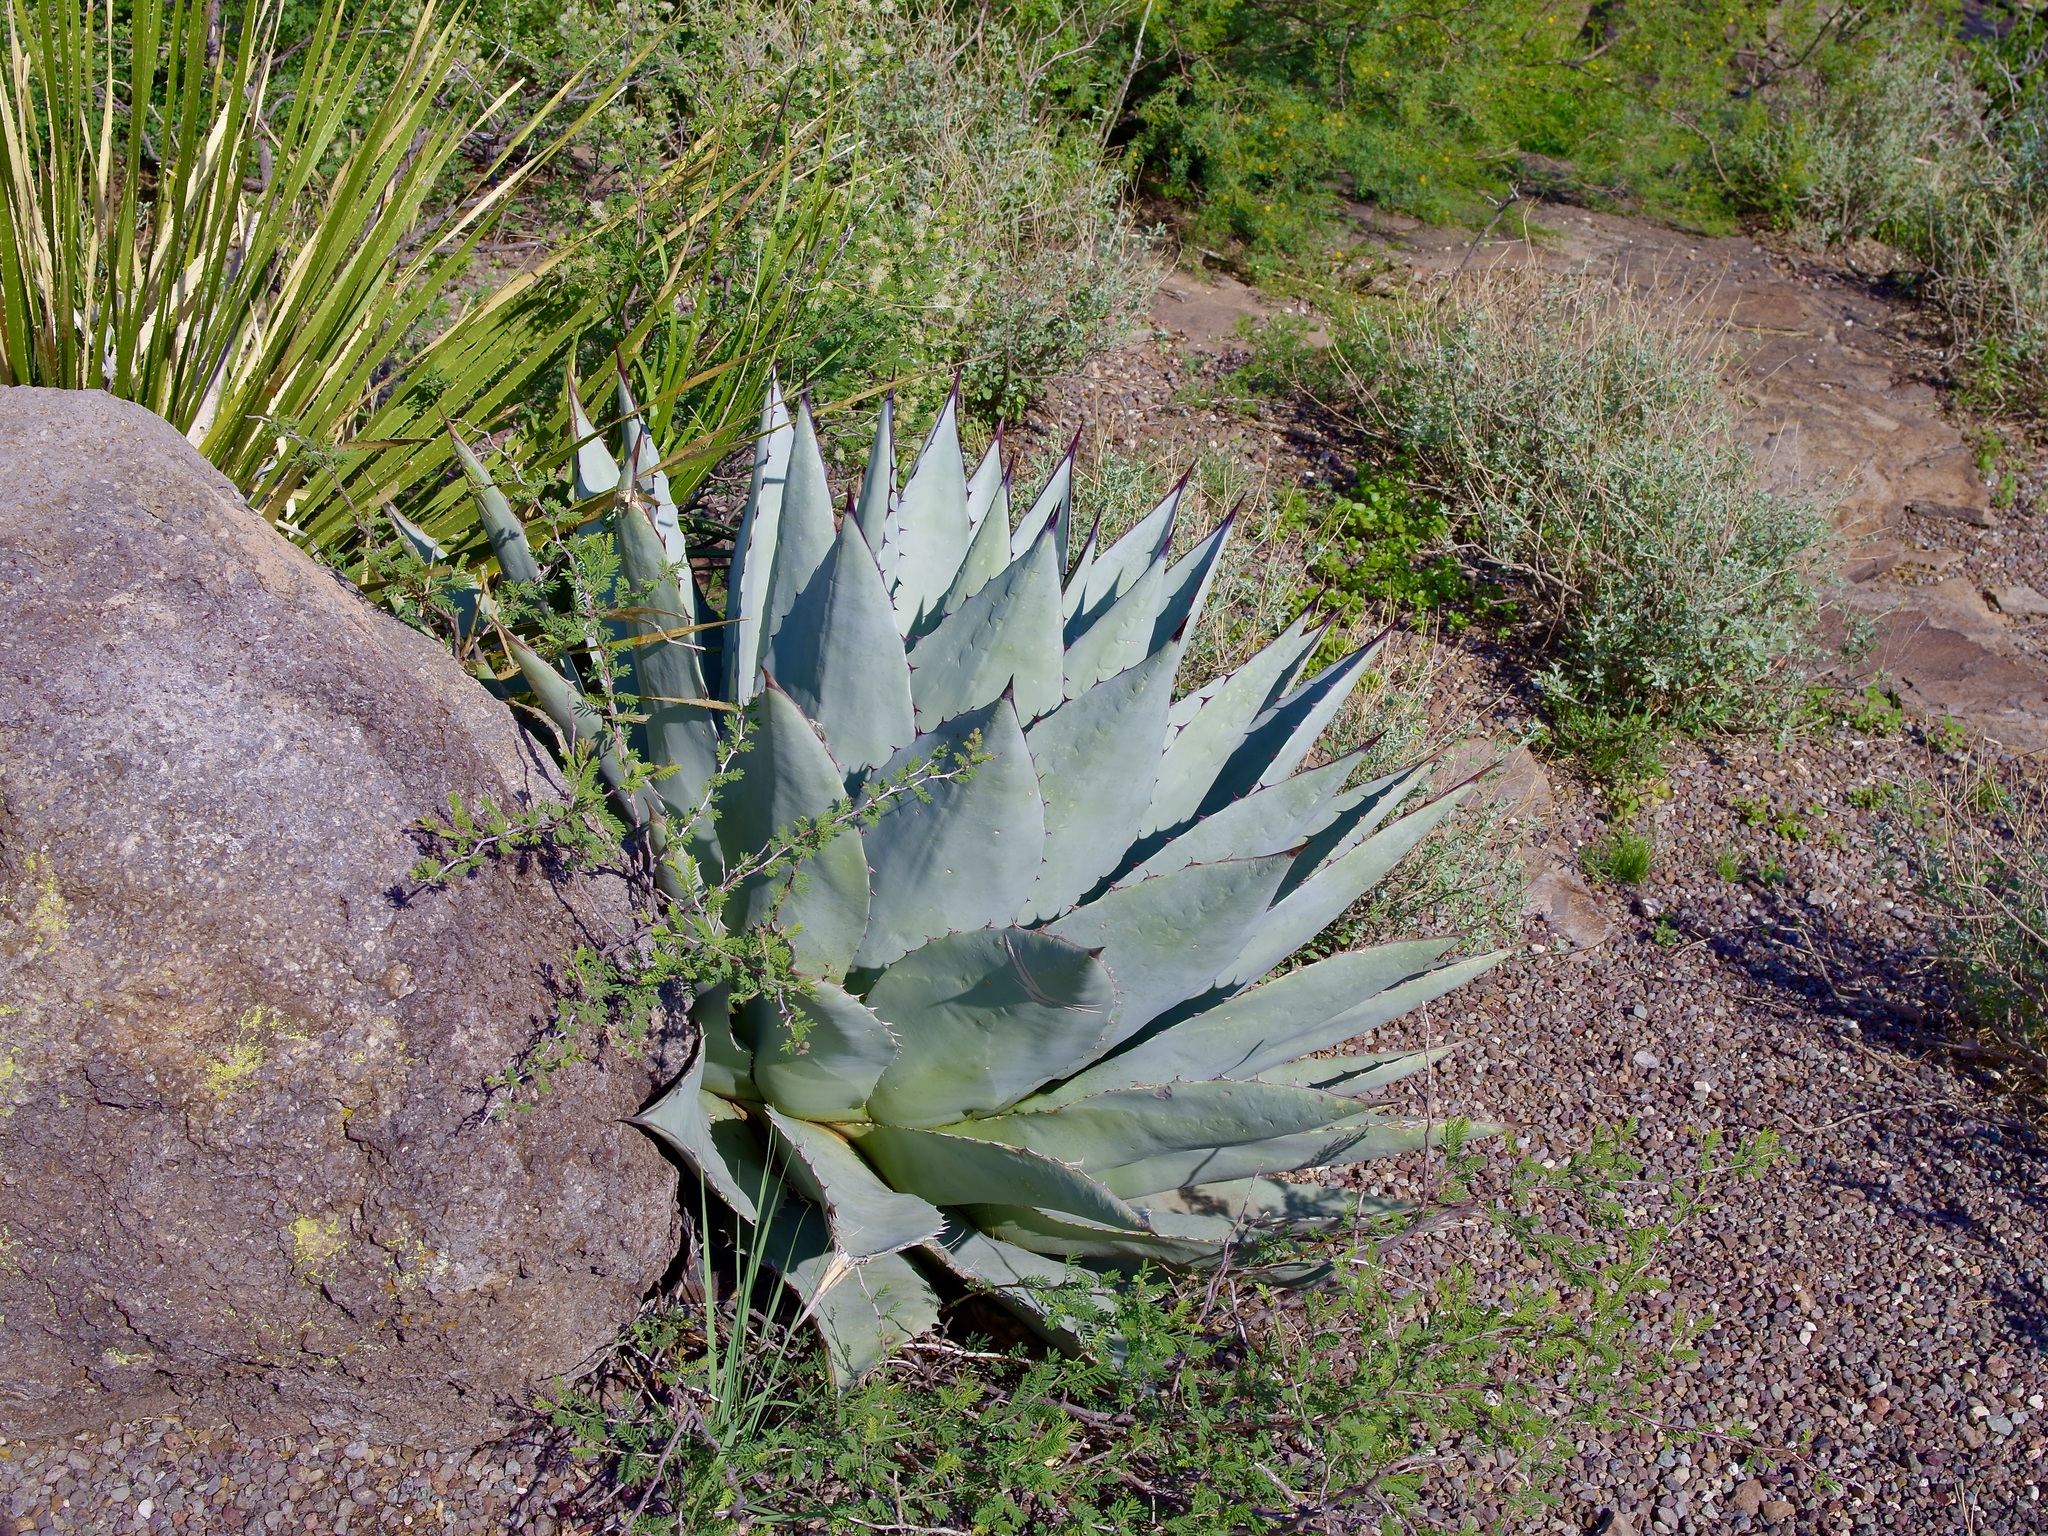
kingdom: Plantae
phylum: Tracheophyta
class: Liliopsida
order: Asparagales
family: Asparagaceae
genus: Agave
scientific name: Agave havardiana
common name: Havard agave
